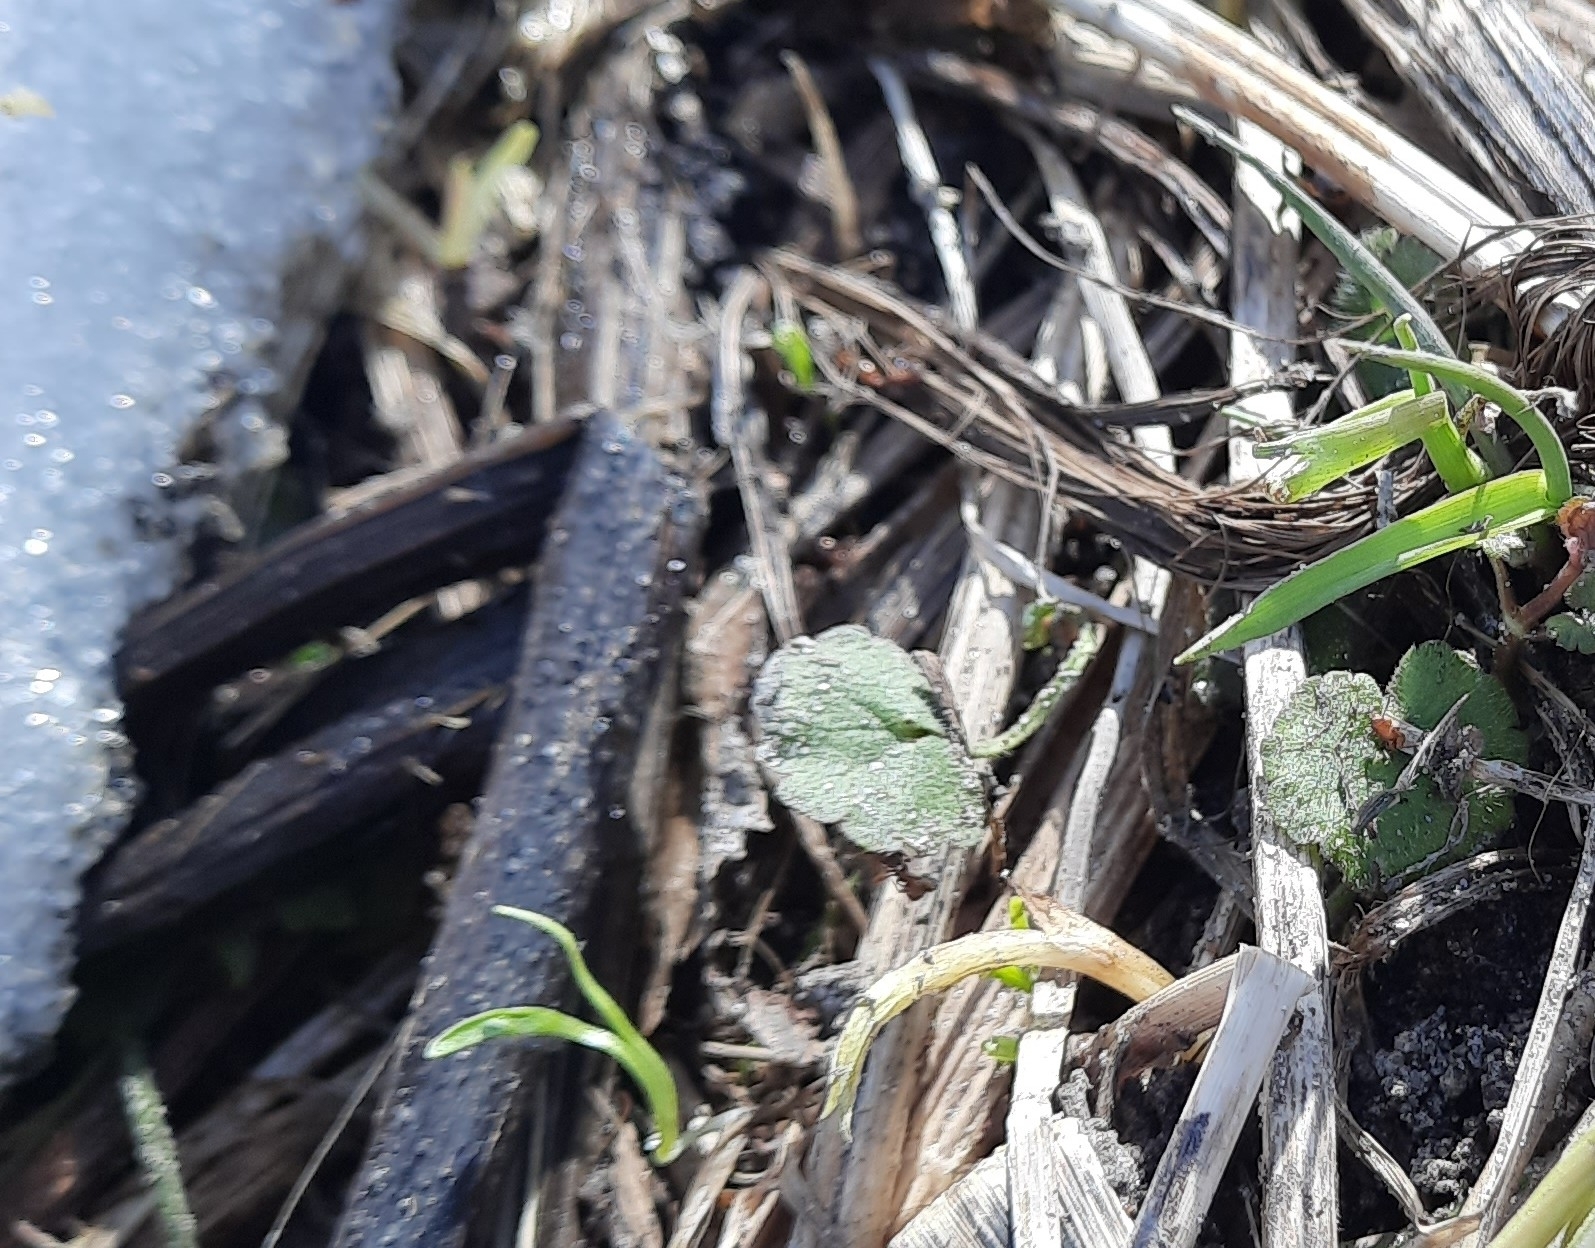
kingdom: Plantae
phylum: Tracheophyta
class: Magnoliopsida
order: Lamiales
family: Lamiaceae
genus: Glechoma
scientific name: Glechoma hederacea
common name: Ground ivy
